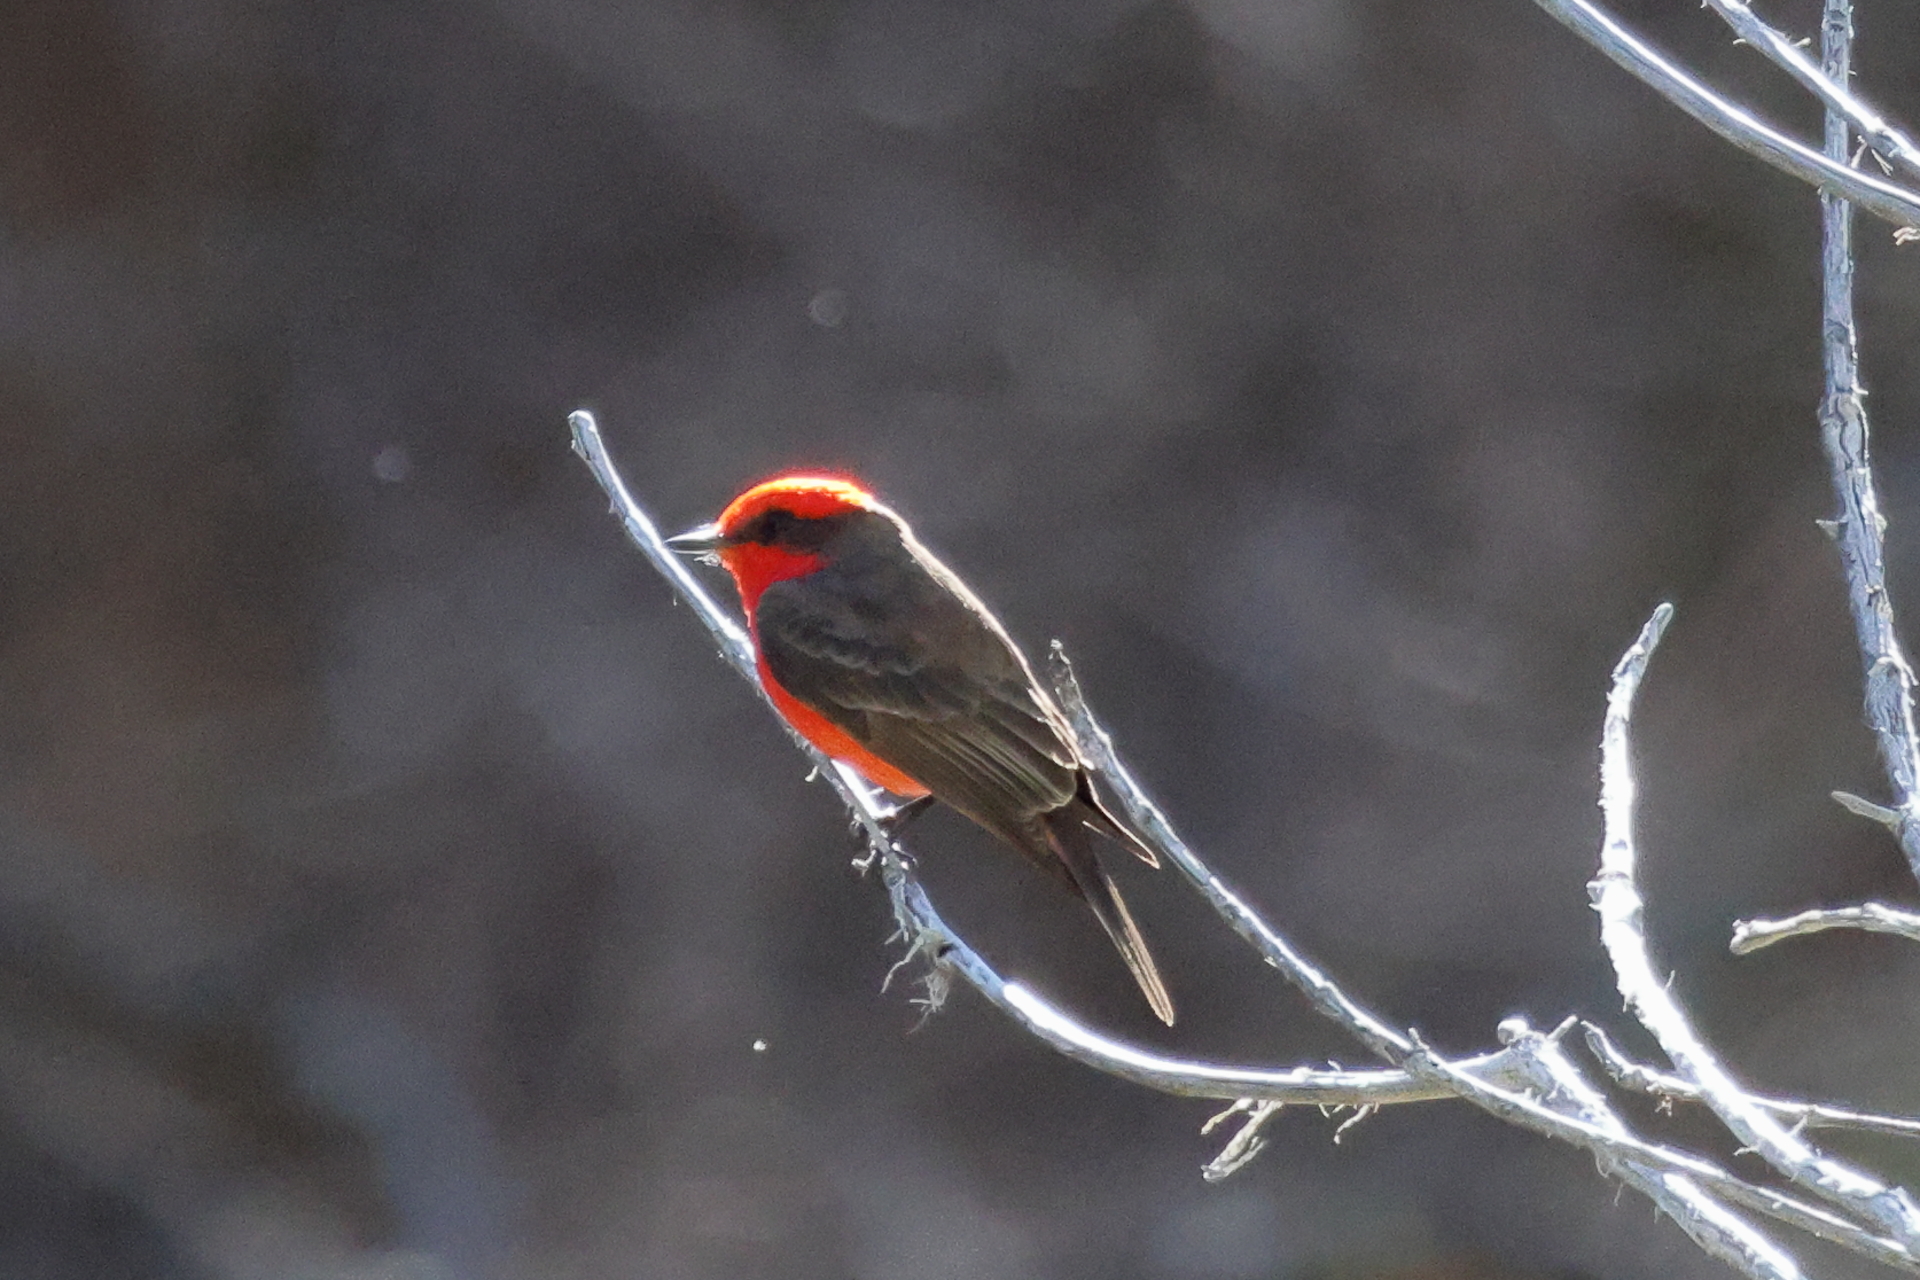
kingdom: Animalia
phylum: Chordata
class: Aves
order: Passeriformes
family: Tyrannidae
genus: Pyrocephalus
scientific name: Pyrocephalus rubinus
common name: Vermilion flycatcher
